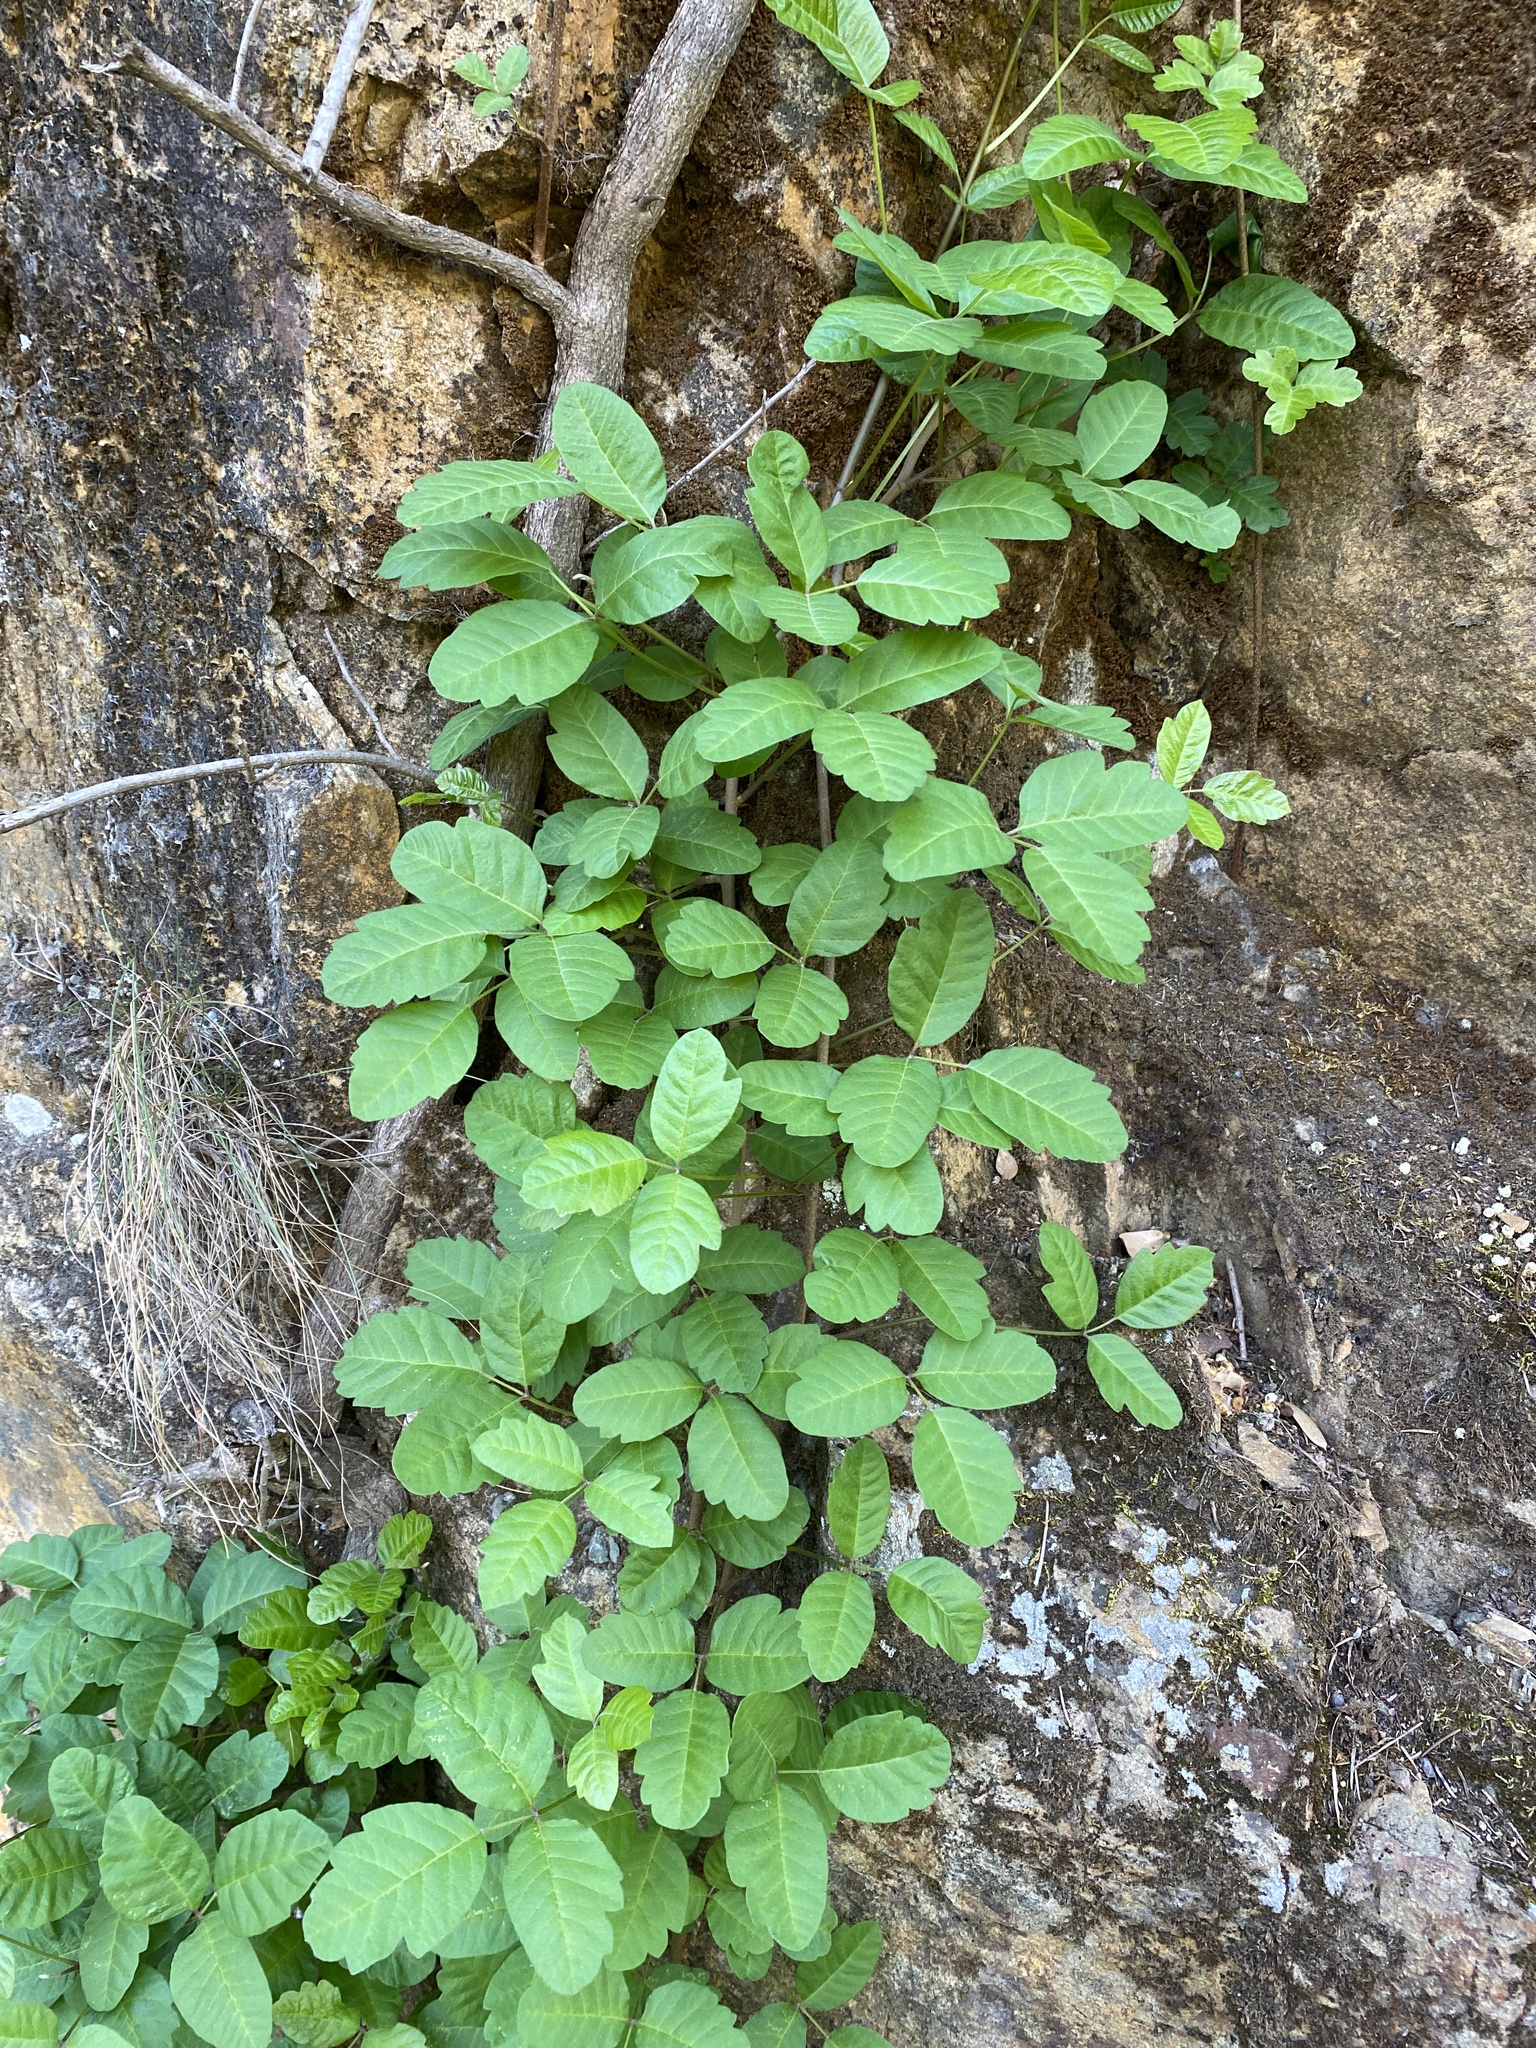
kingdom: Plantae
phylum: Tracheophyta
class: Magnoliopsida
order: Sapindales
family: Anacardiaceae
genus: Toxicodendron
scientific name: Toxicodendron diversilobum
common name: Pacific poison-oak
